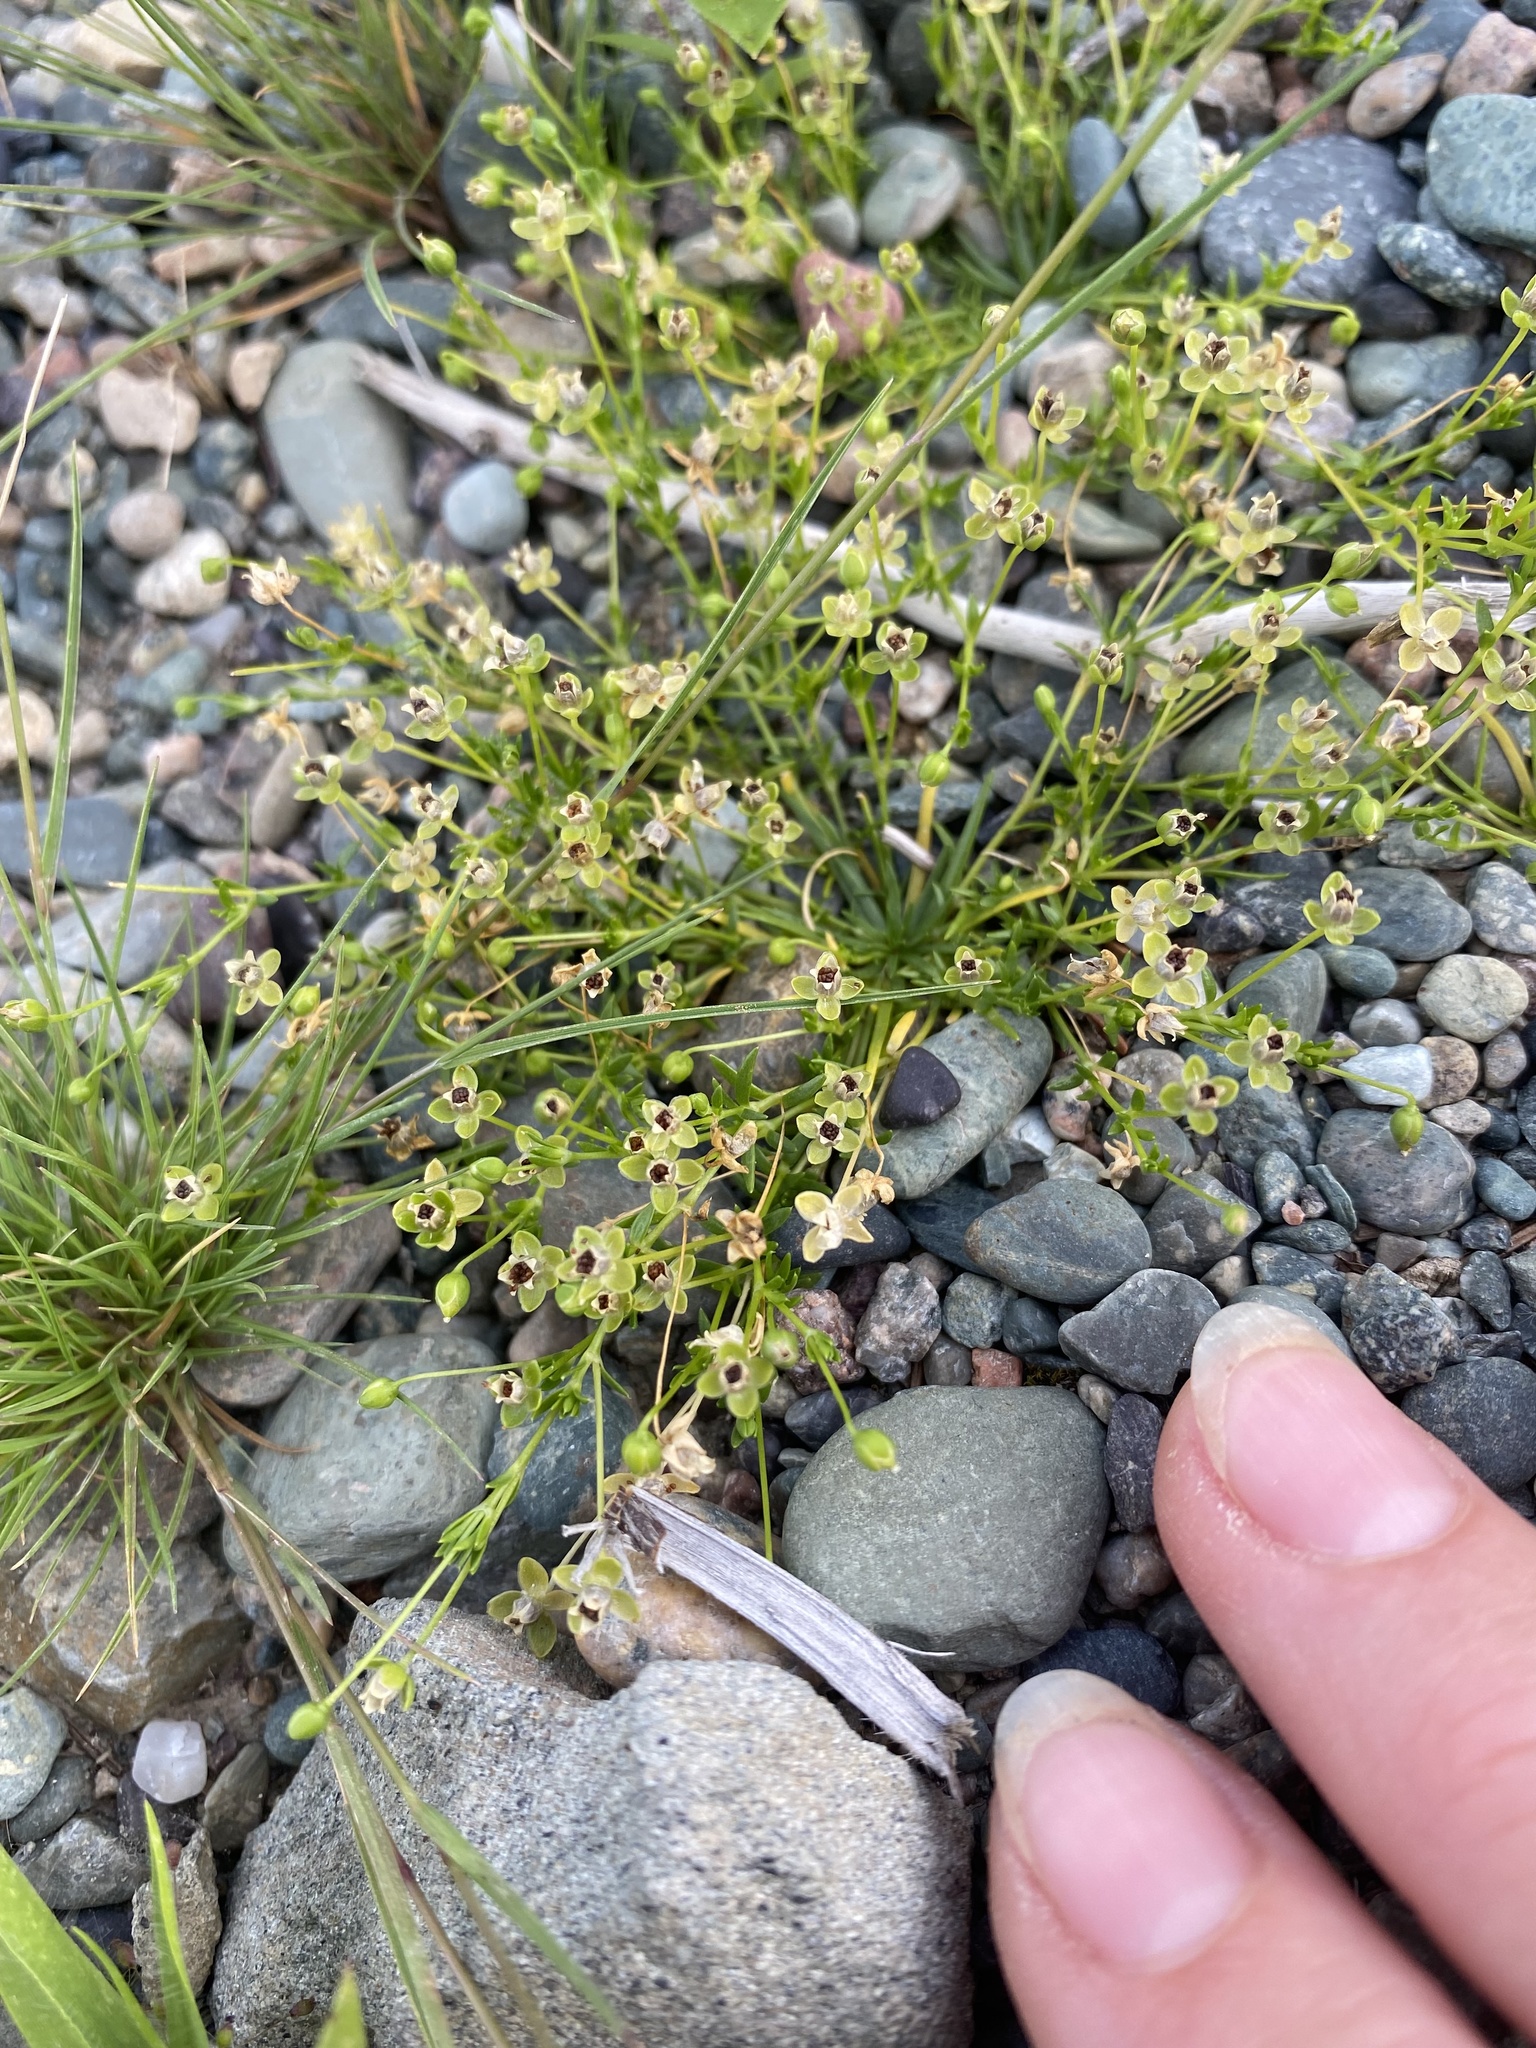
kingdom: Plantae
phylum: Tracheophyta
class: Magnoliopsida
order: Caryophyllales
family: Caryophyllaceae
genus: Sagina
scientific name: Sagina procumbens
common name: Procumbent pearlwort
